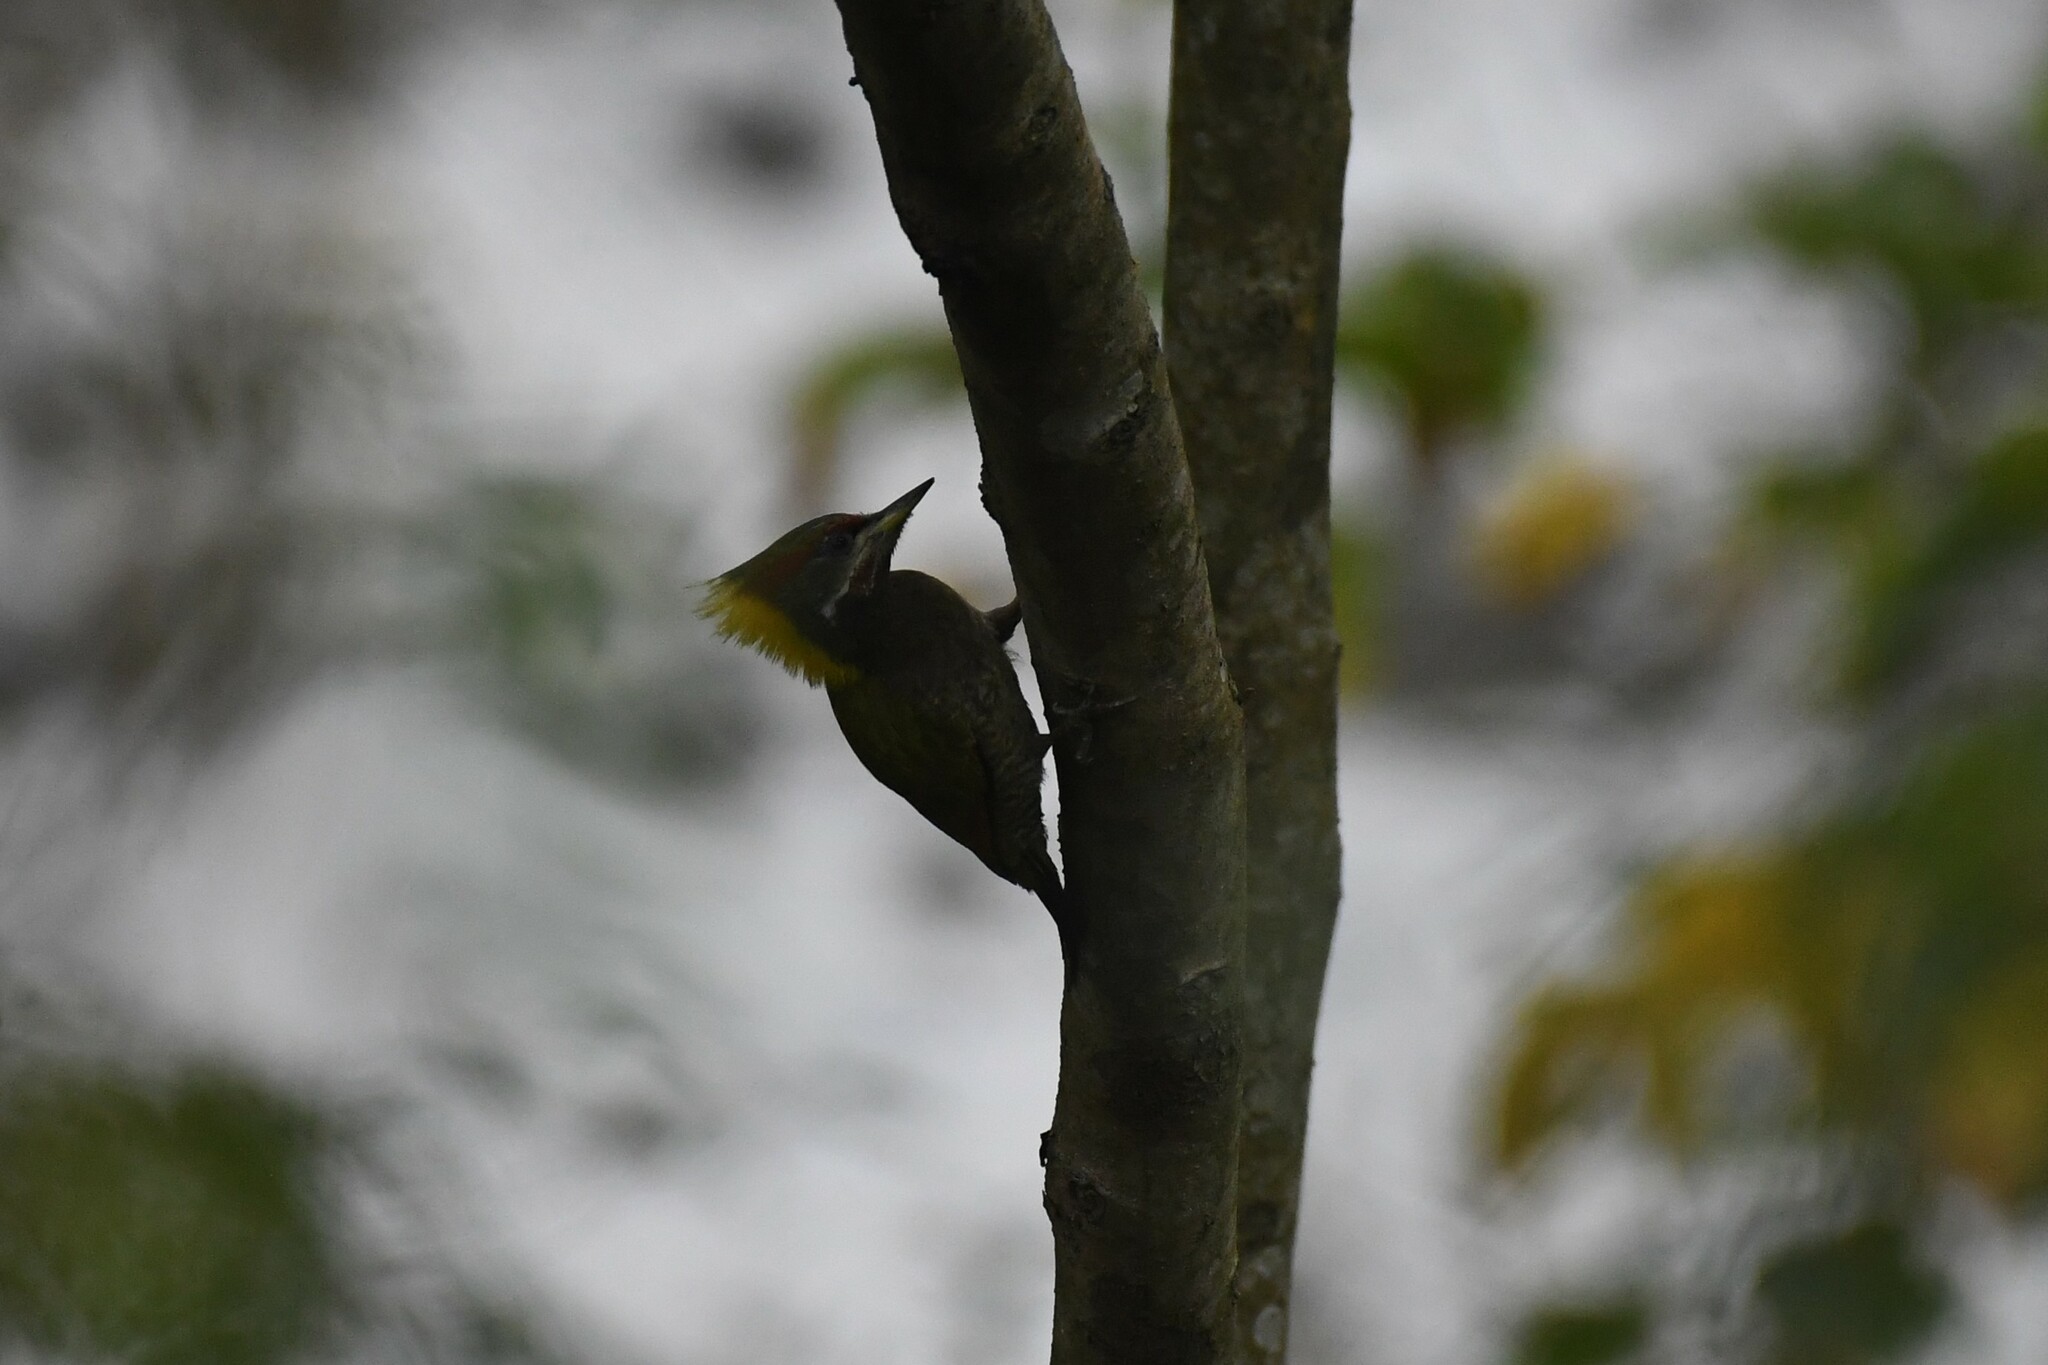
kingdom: Animalia
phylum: Chordata
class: Aves
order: Piciformes
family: Picidae
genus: Picus
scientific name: Picus chlorolophus
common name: Lesser yellownape
